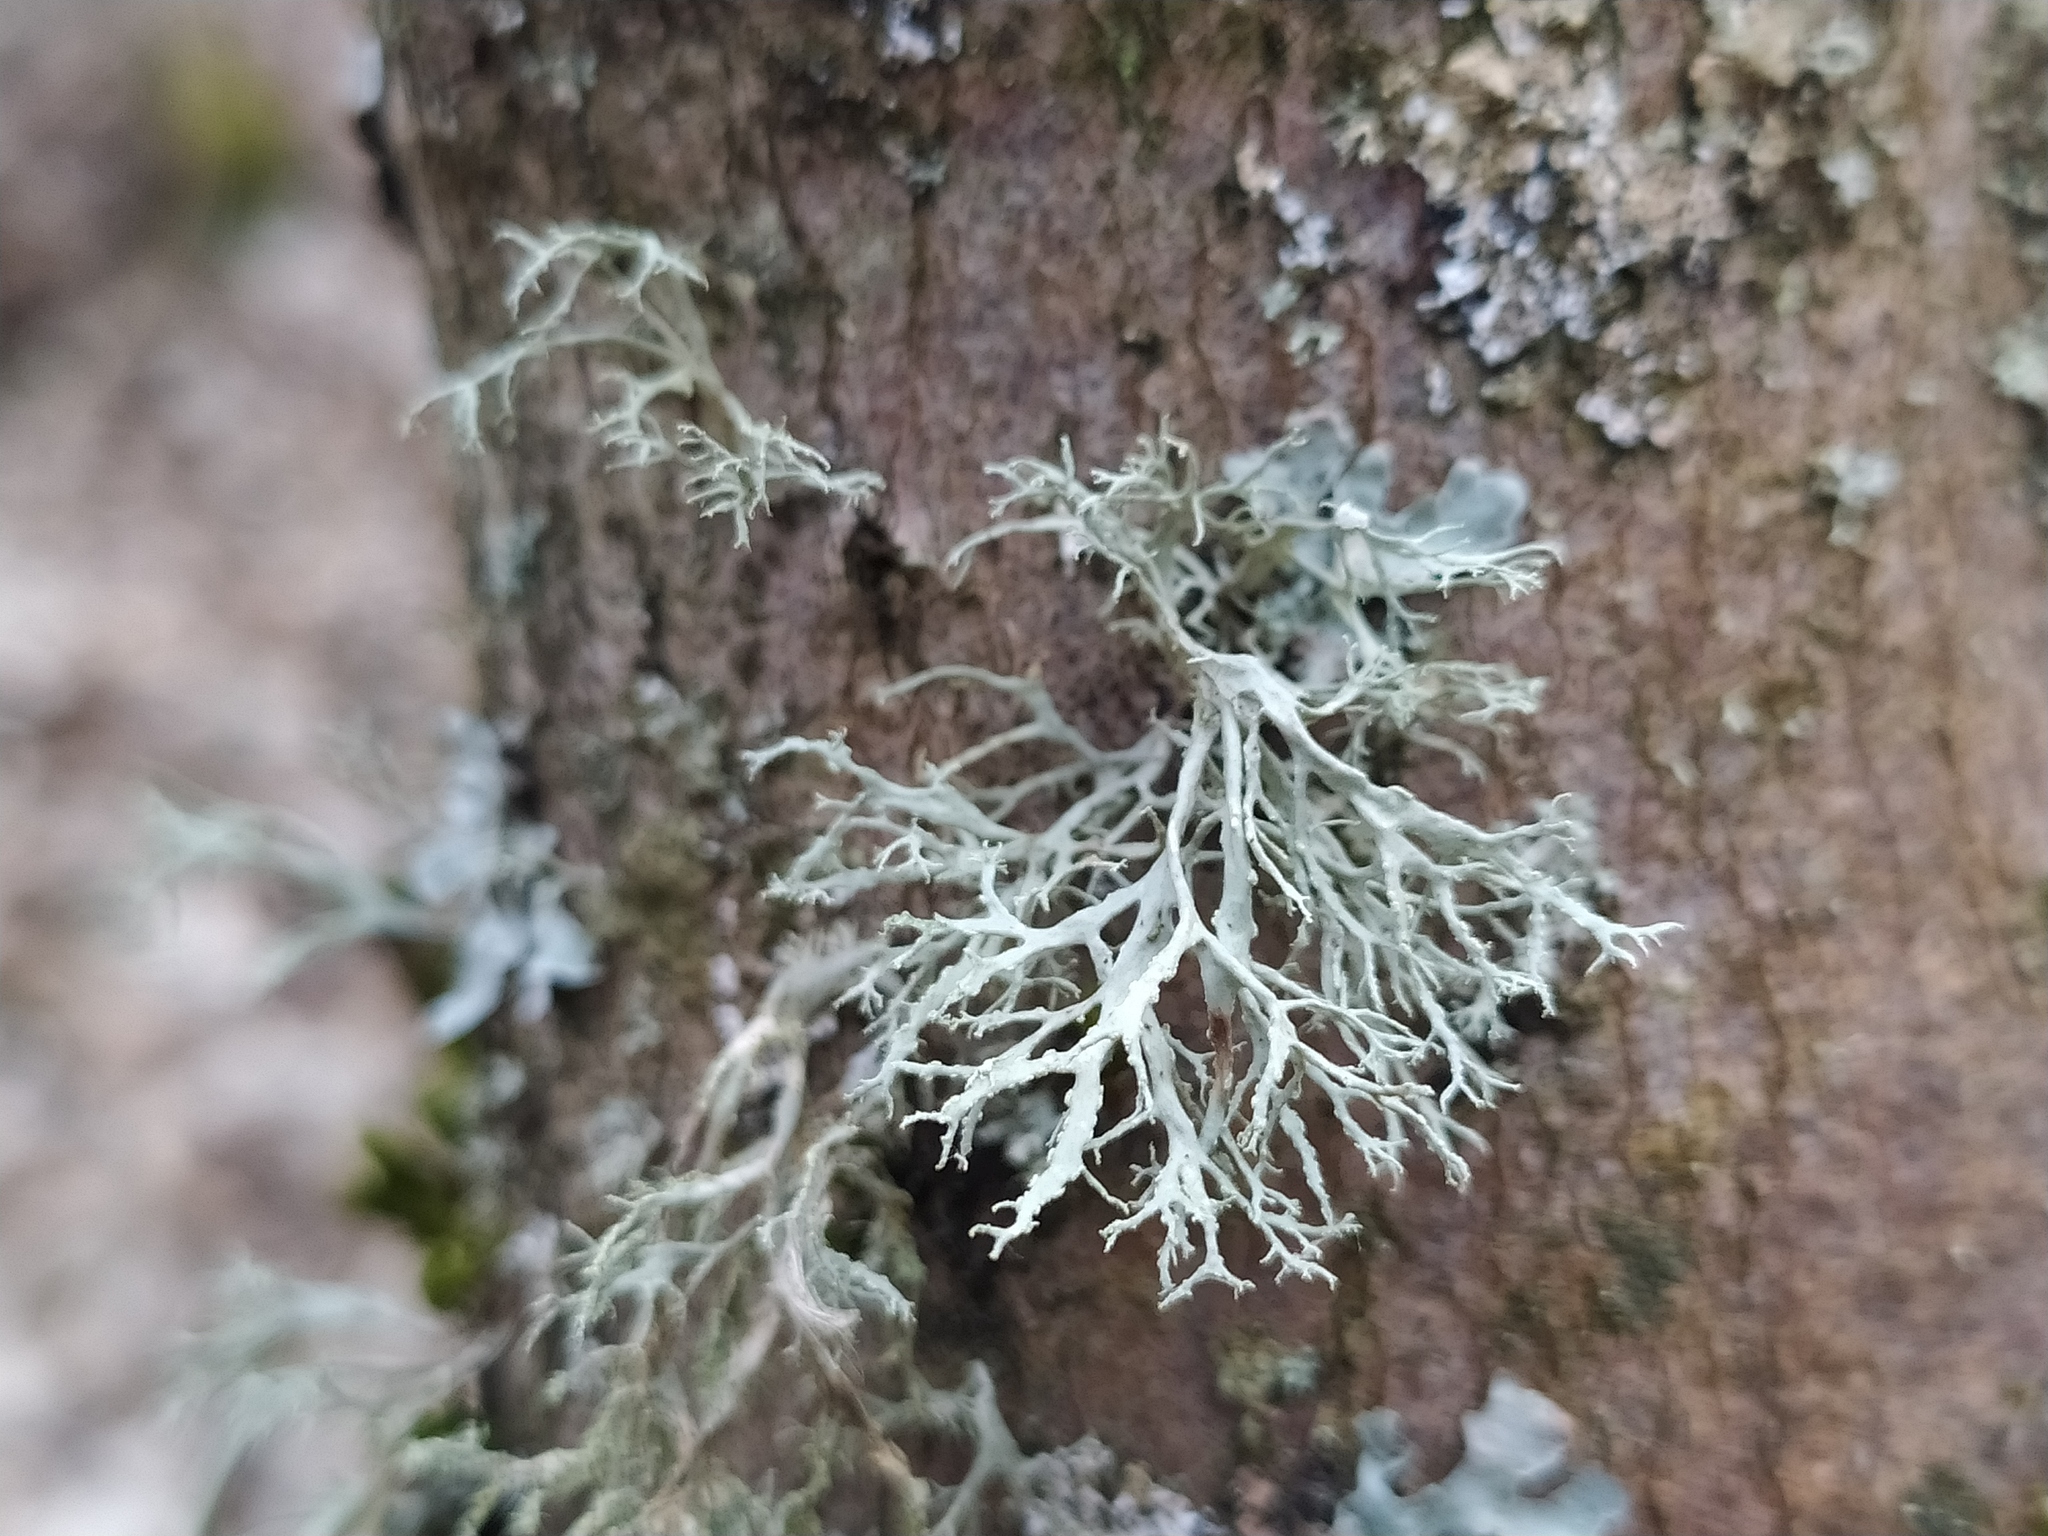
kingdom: Fungi
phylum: Ascomycota
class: Lecanoromycetes
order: Lecanorales
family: Ramalinaceae
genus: Ramalina
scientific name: Ramalina farinacea
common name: Farinose cartilage lichen
